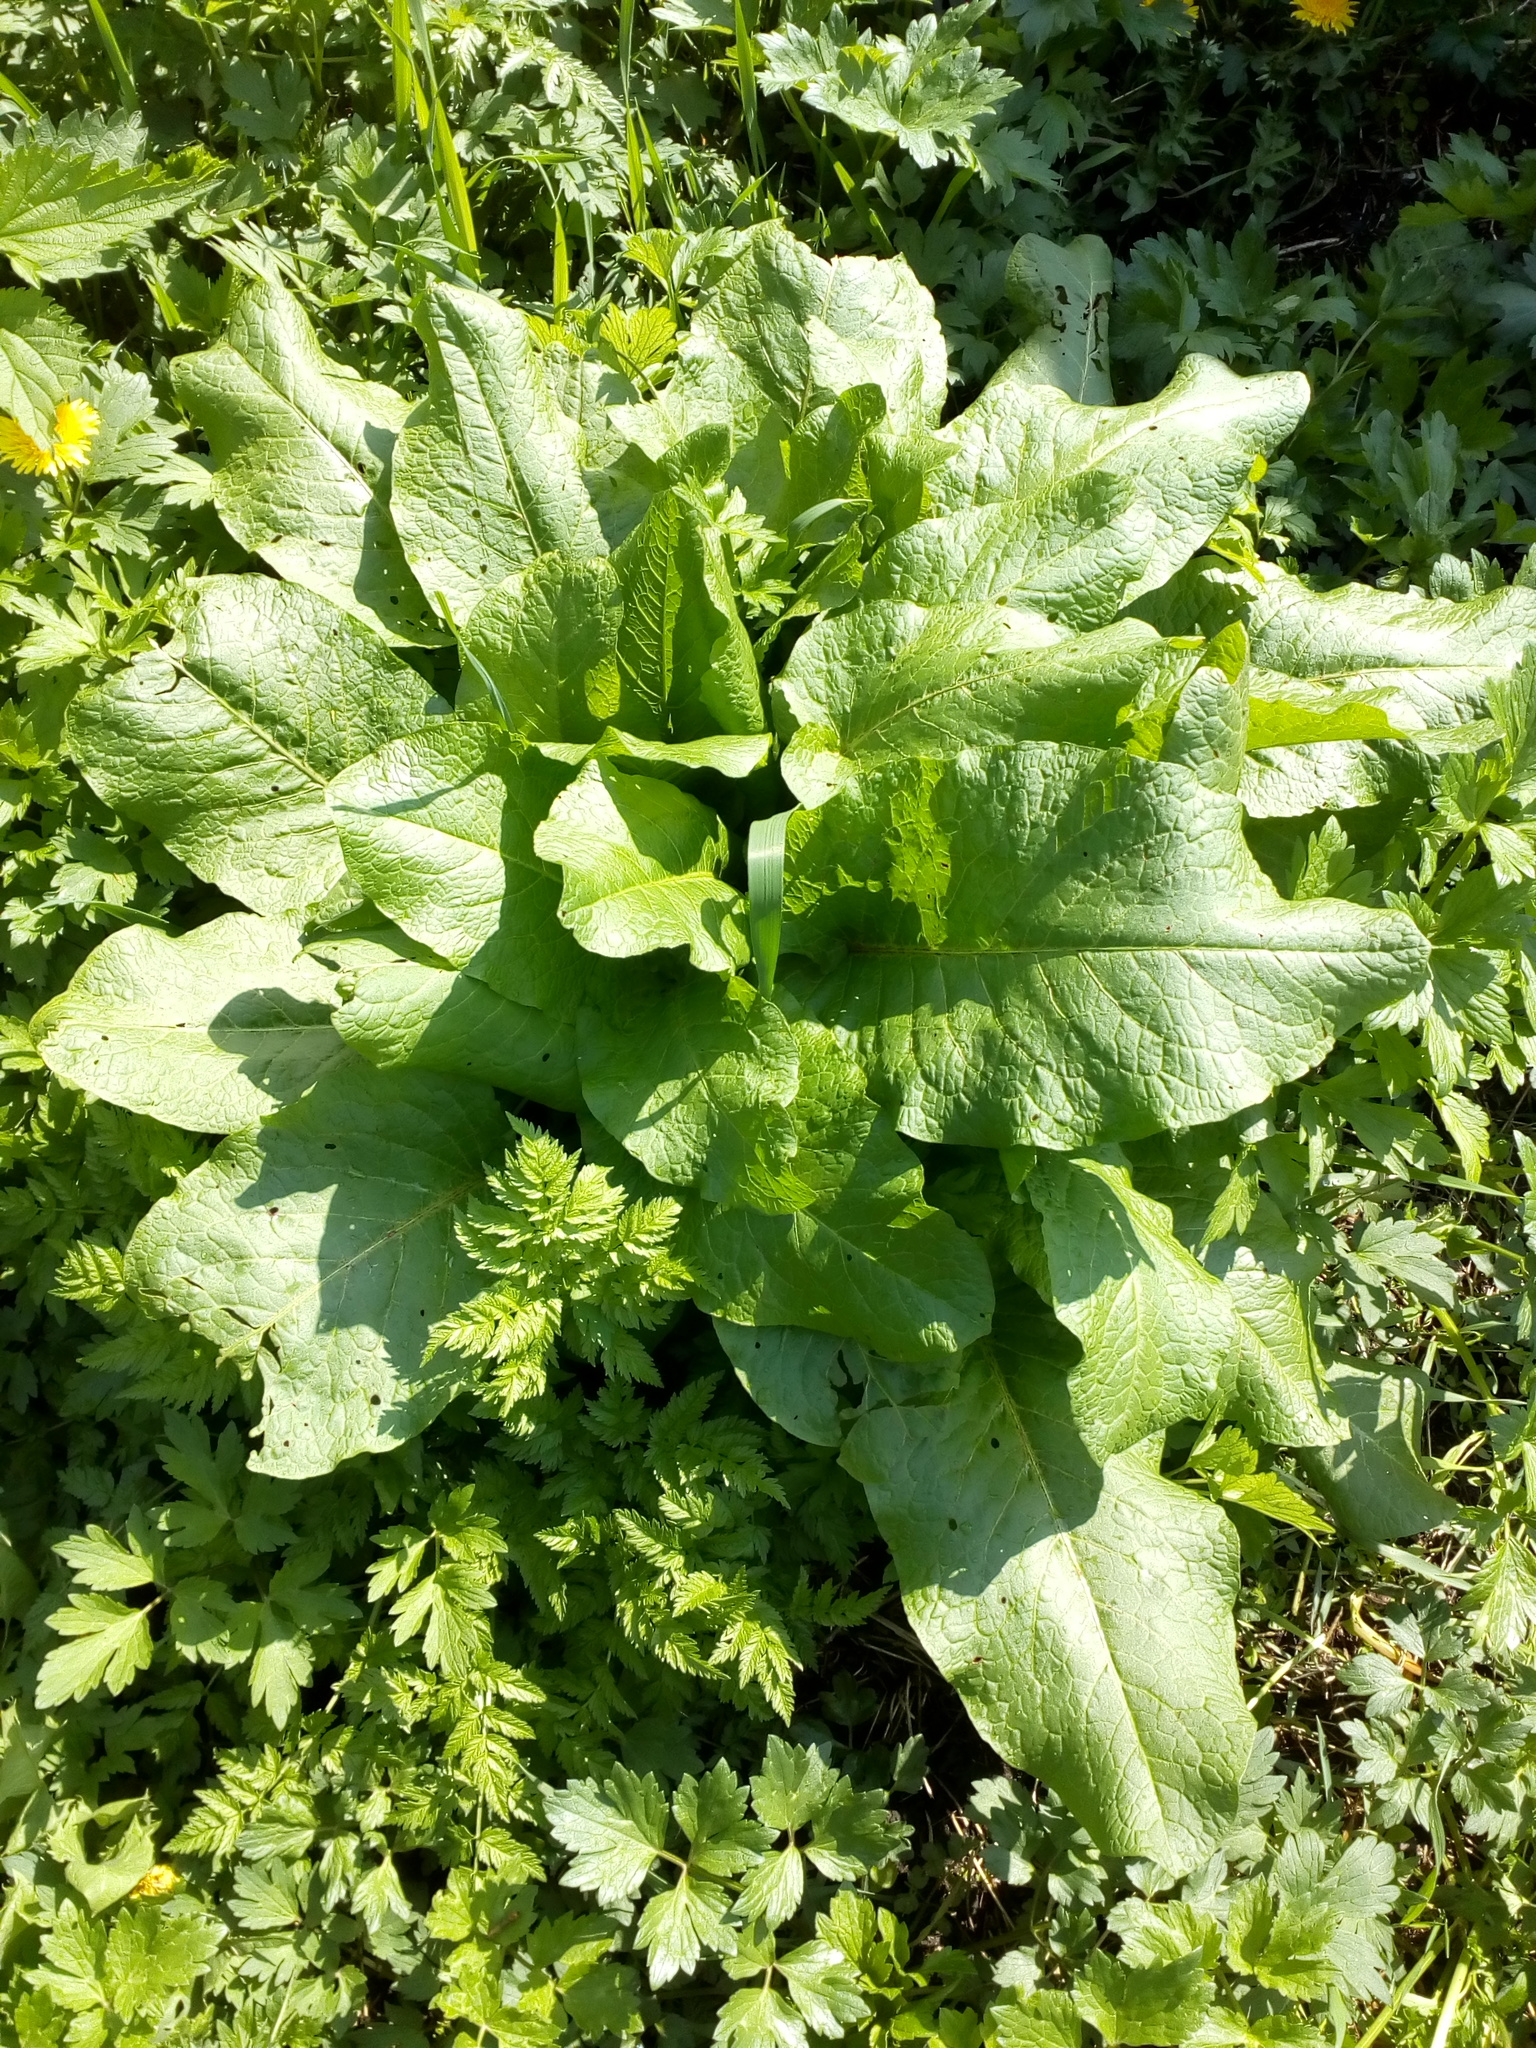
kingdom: Plantae
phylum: Tracheophyta
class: Magnoliopsida
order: Caryophyllales
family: Polygonaceae
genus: Rumex
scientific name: Rumex obtusifolius
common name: Bitter dock
